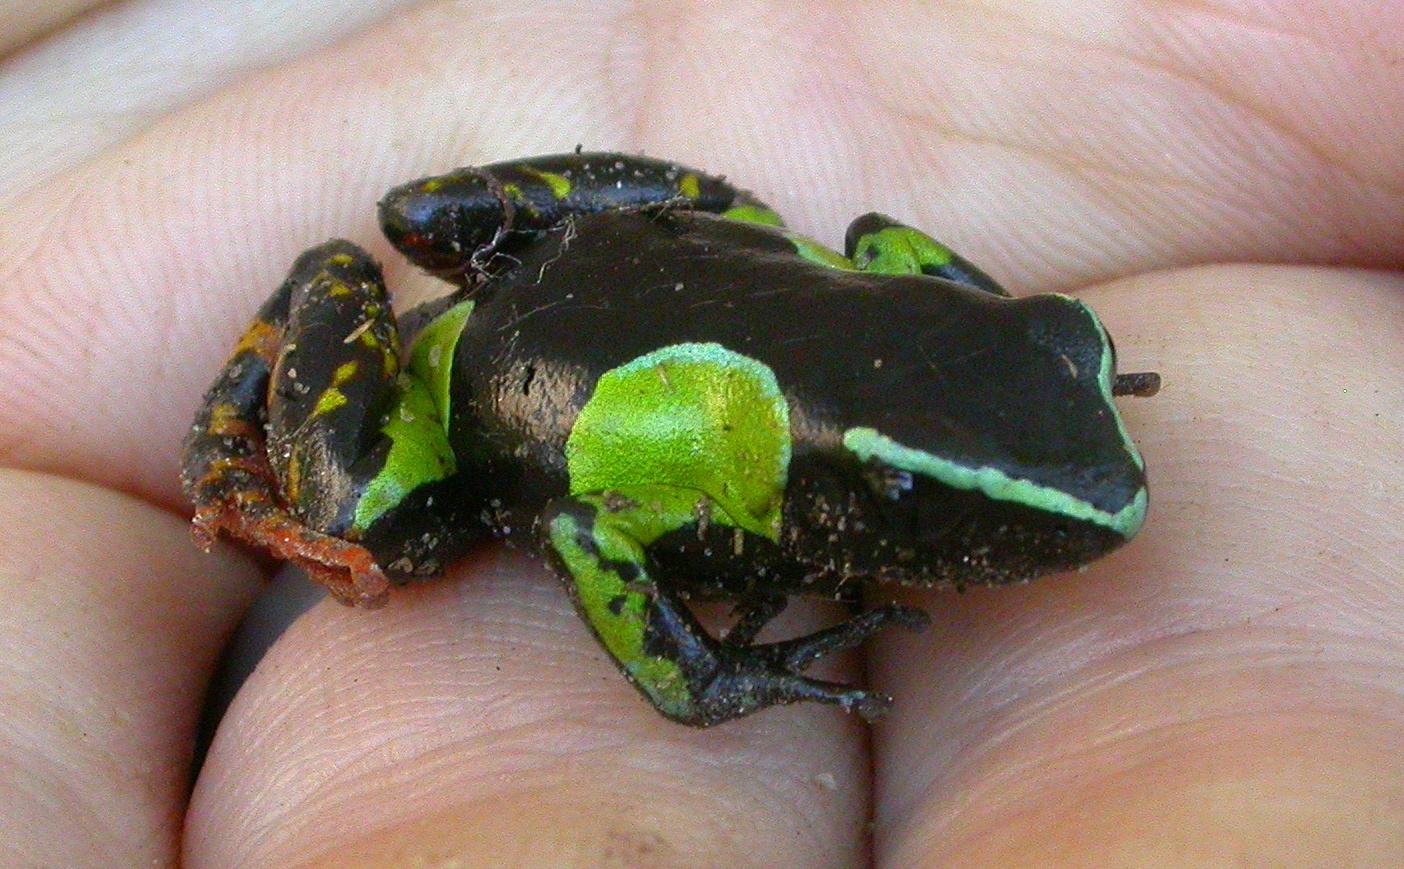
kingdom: Animalia
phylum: Chordata
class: Amphibia
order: Anura
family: Mantellidae
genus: Mantella
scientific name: Mantella baroni
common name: Baron's mantella
